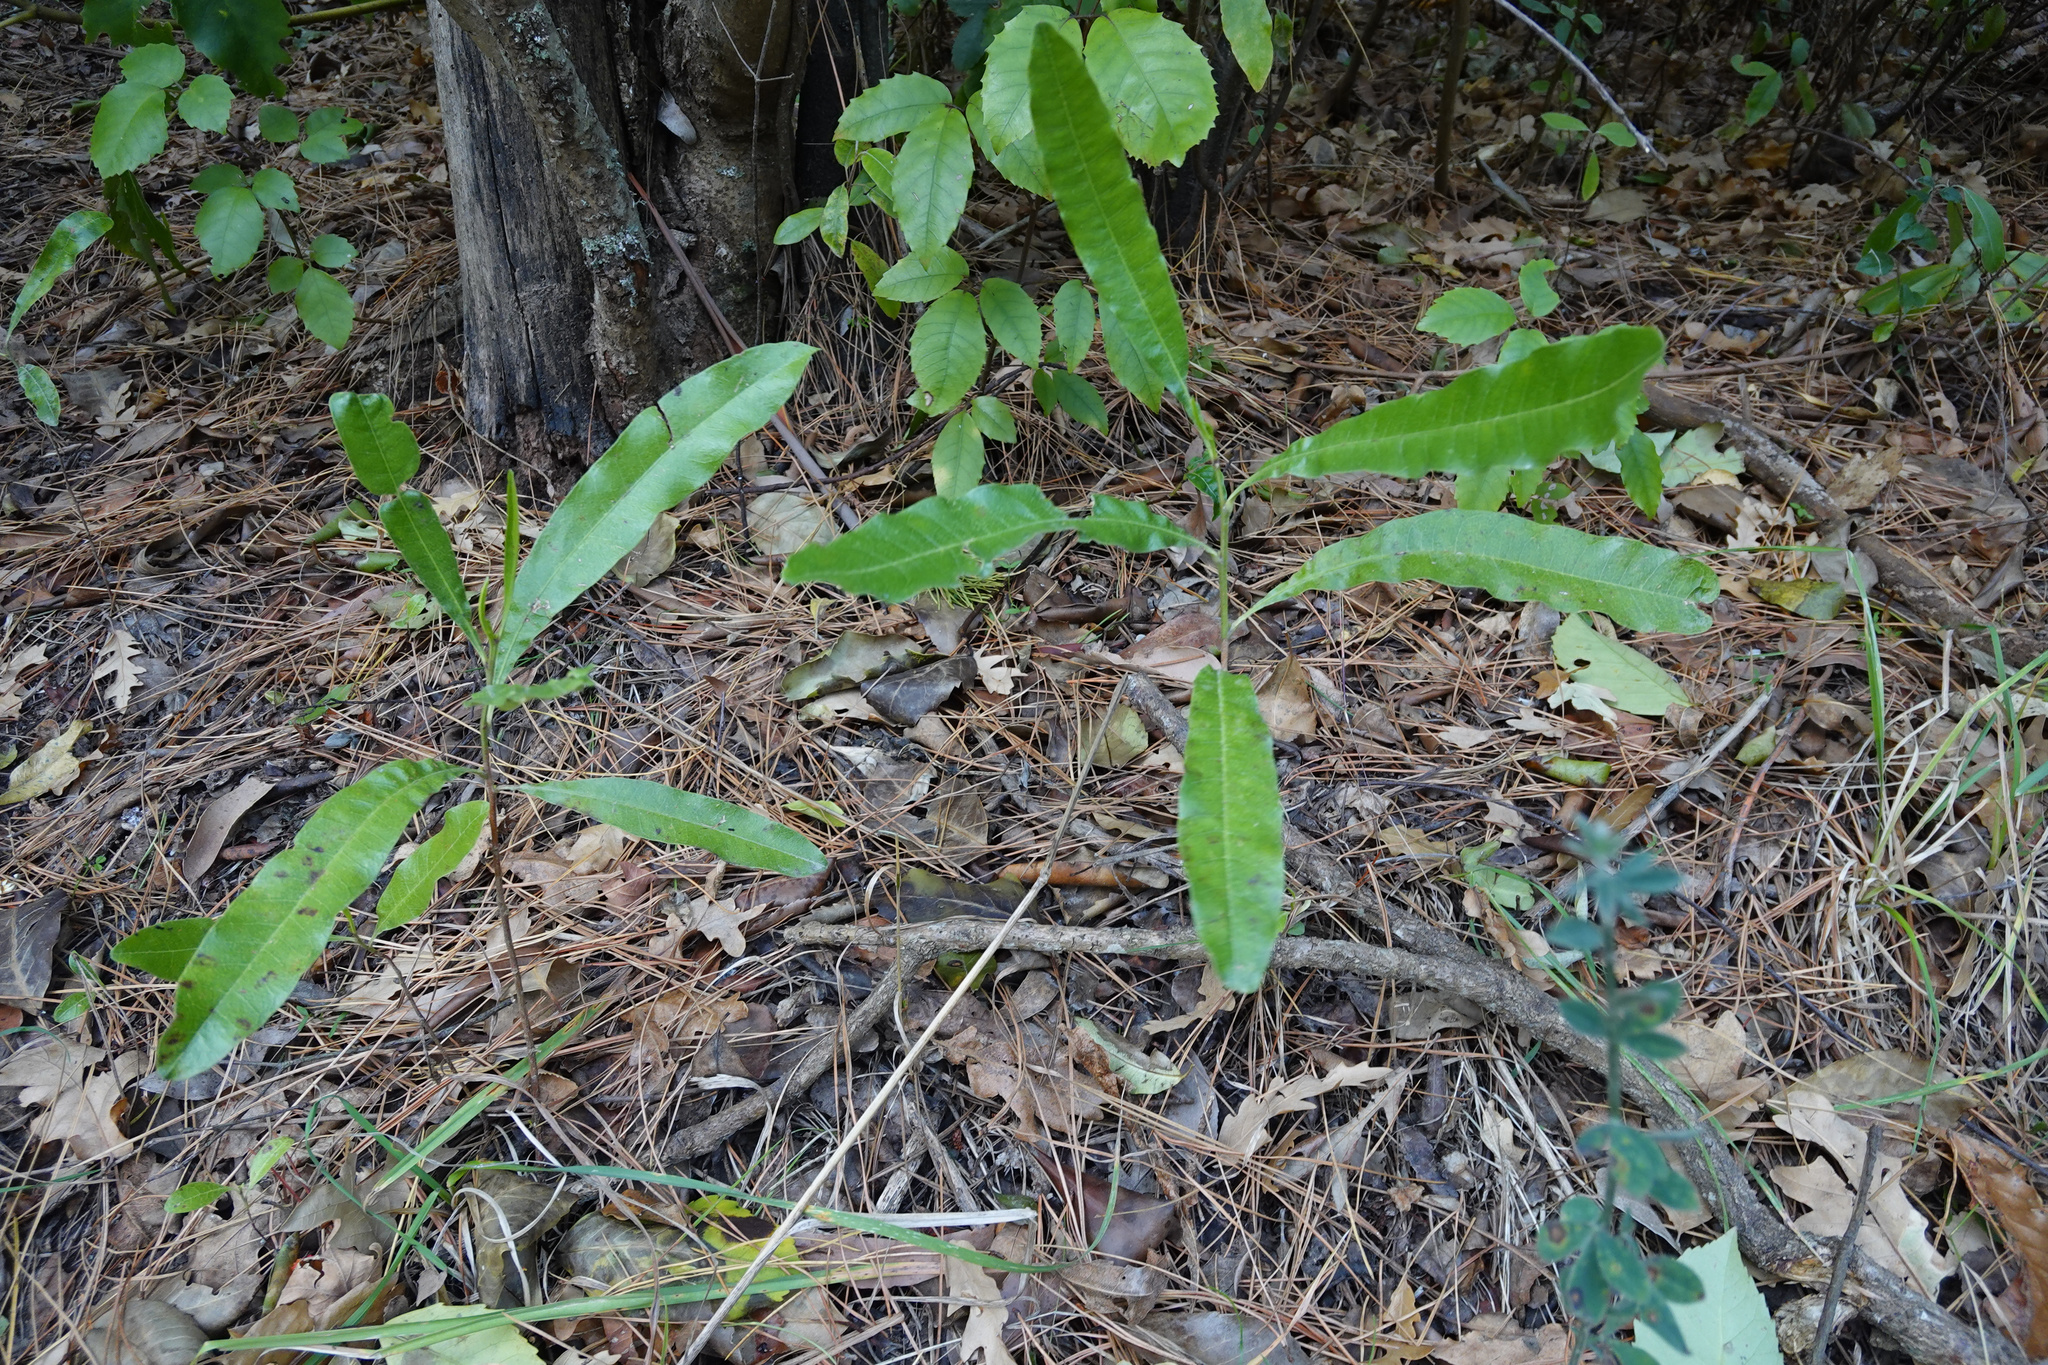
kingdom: Plantae
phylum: Tracheophyta
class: Magnoliopsida
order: Sapindales
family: Sapindaceae
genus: Dodonaea
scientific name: Dodonaea viscosa
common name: Hopbush
